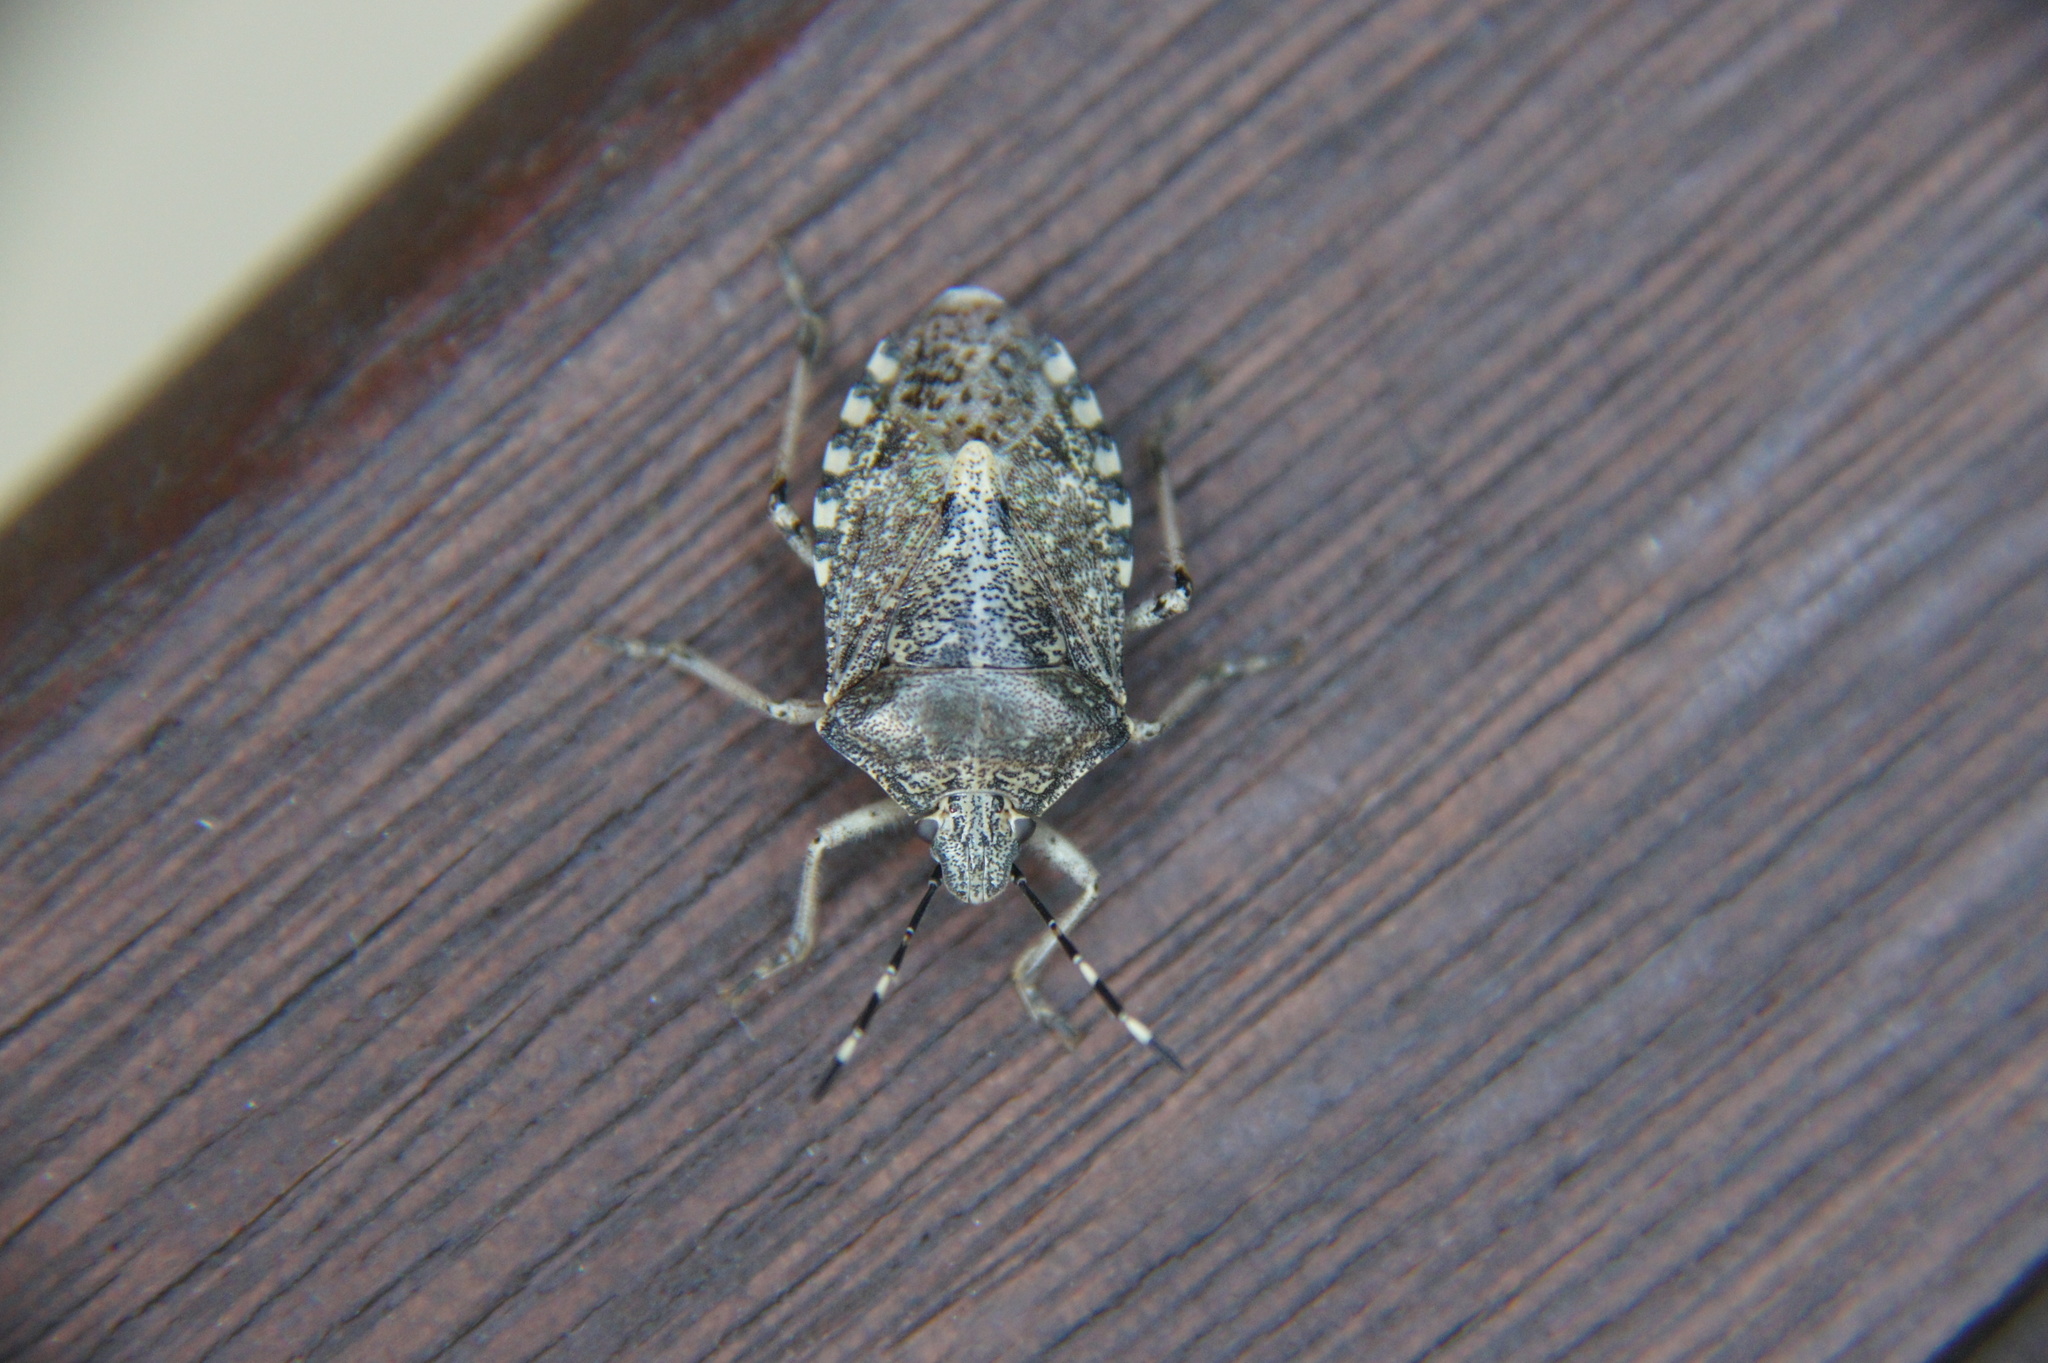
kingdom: Animalia
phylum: Arthropoda
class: Insecta
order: Hemiptera
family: Pentatomidae
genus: Rhaphigaster
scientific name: Rhaphigaster nebulosa
